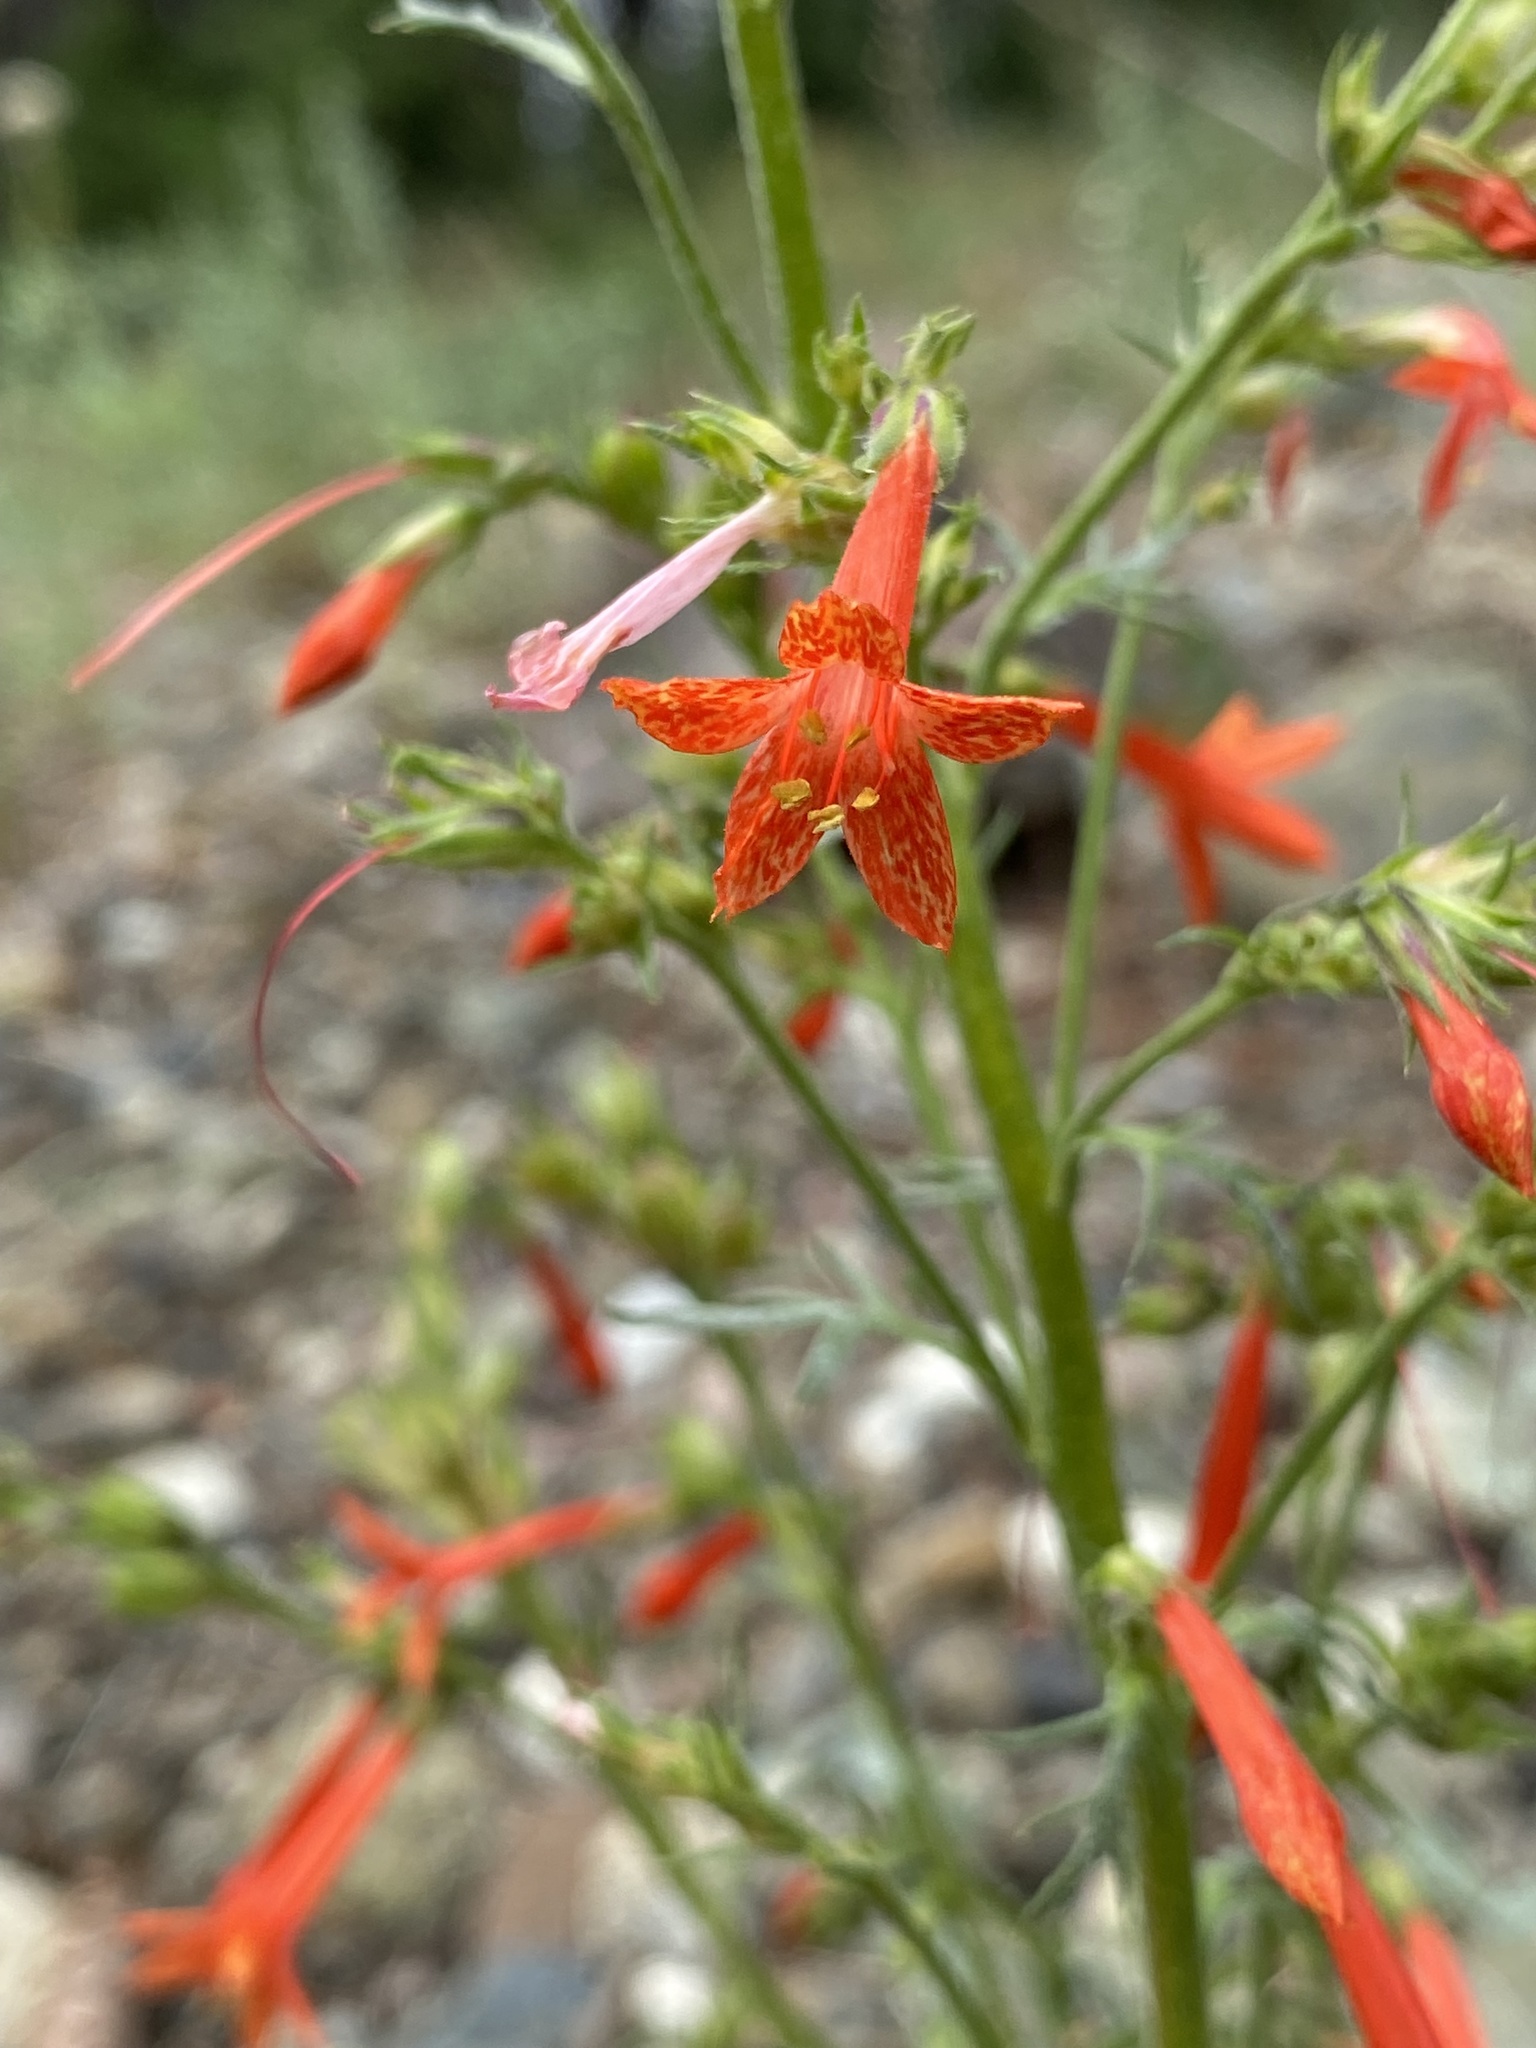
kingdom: Plantae
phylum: Tracheophyta
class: Magnoliopsida
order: Ericales
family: Polemoniaceae
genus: Ipomopsis
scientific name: Ipomopsis aggregata
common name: Scarlet gilia
